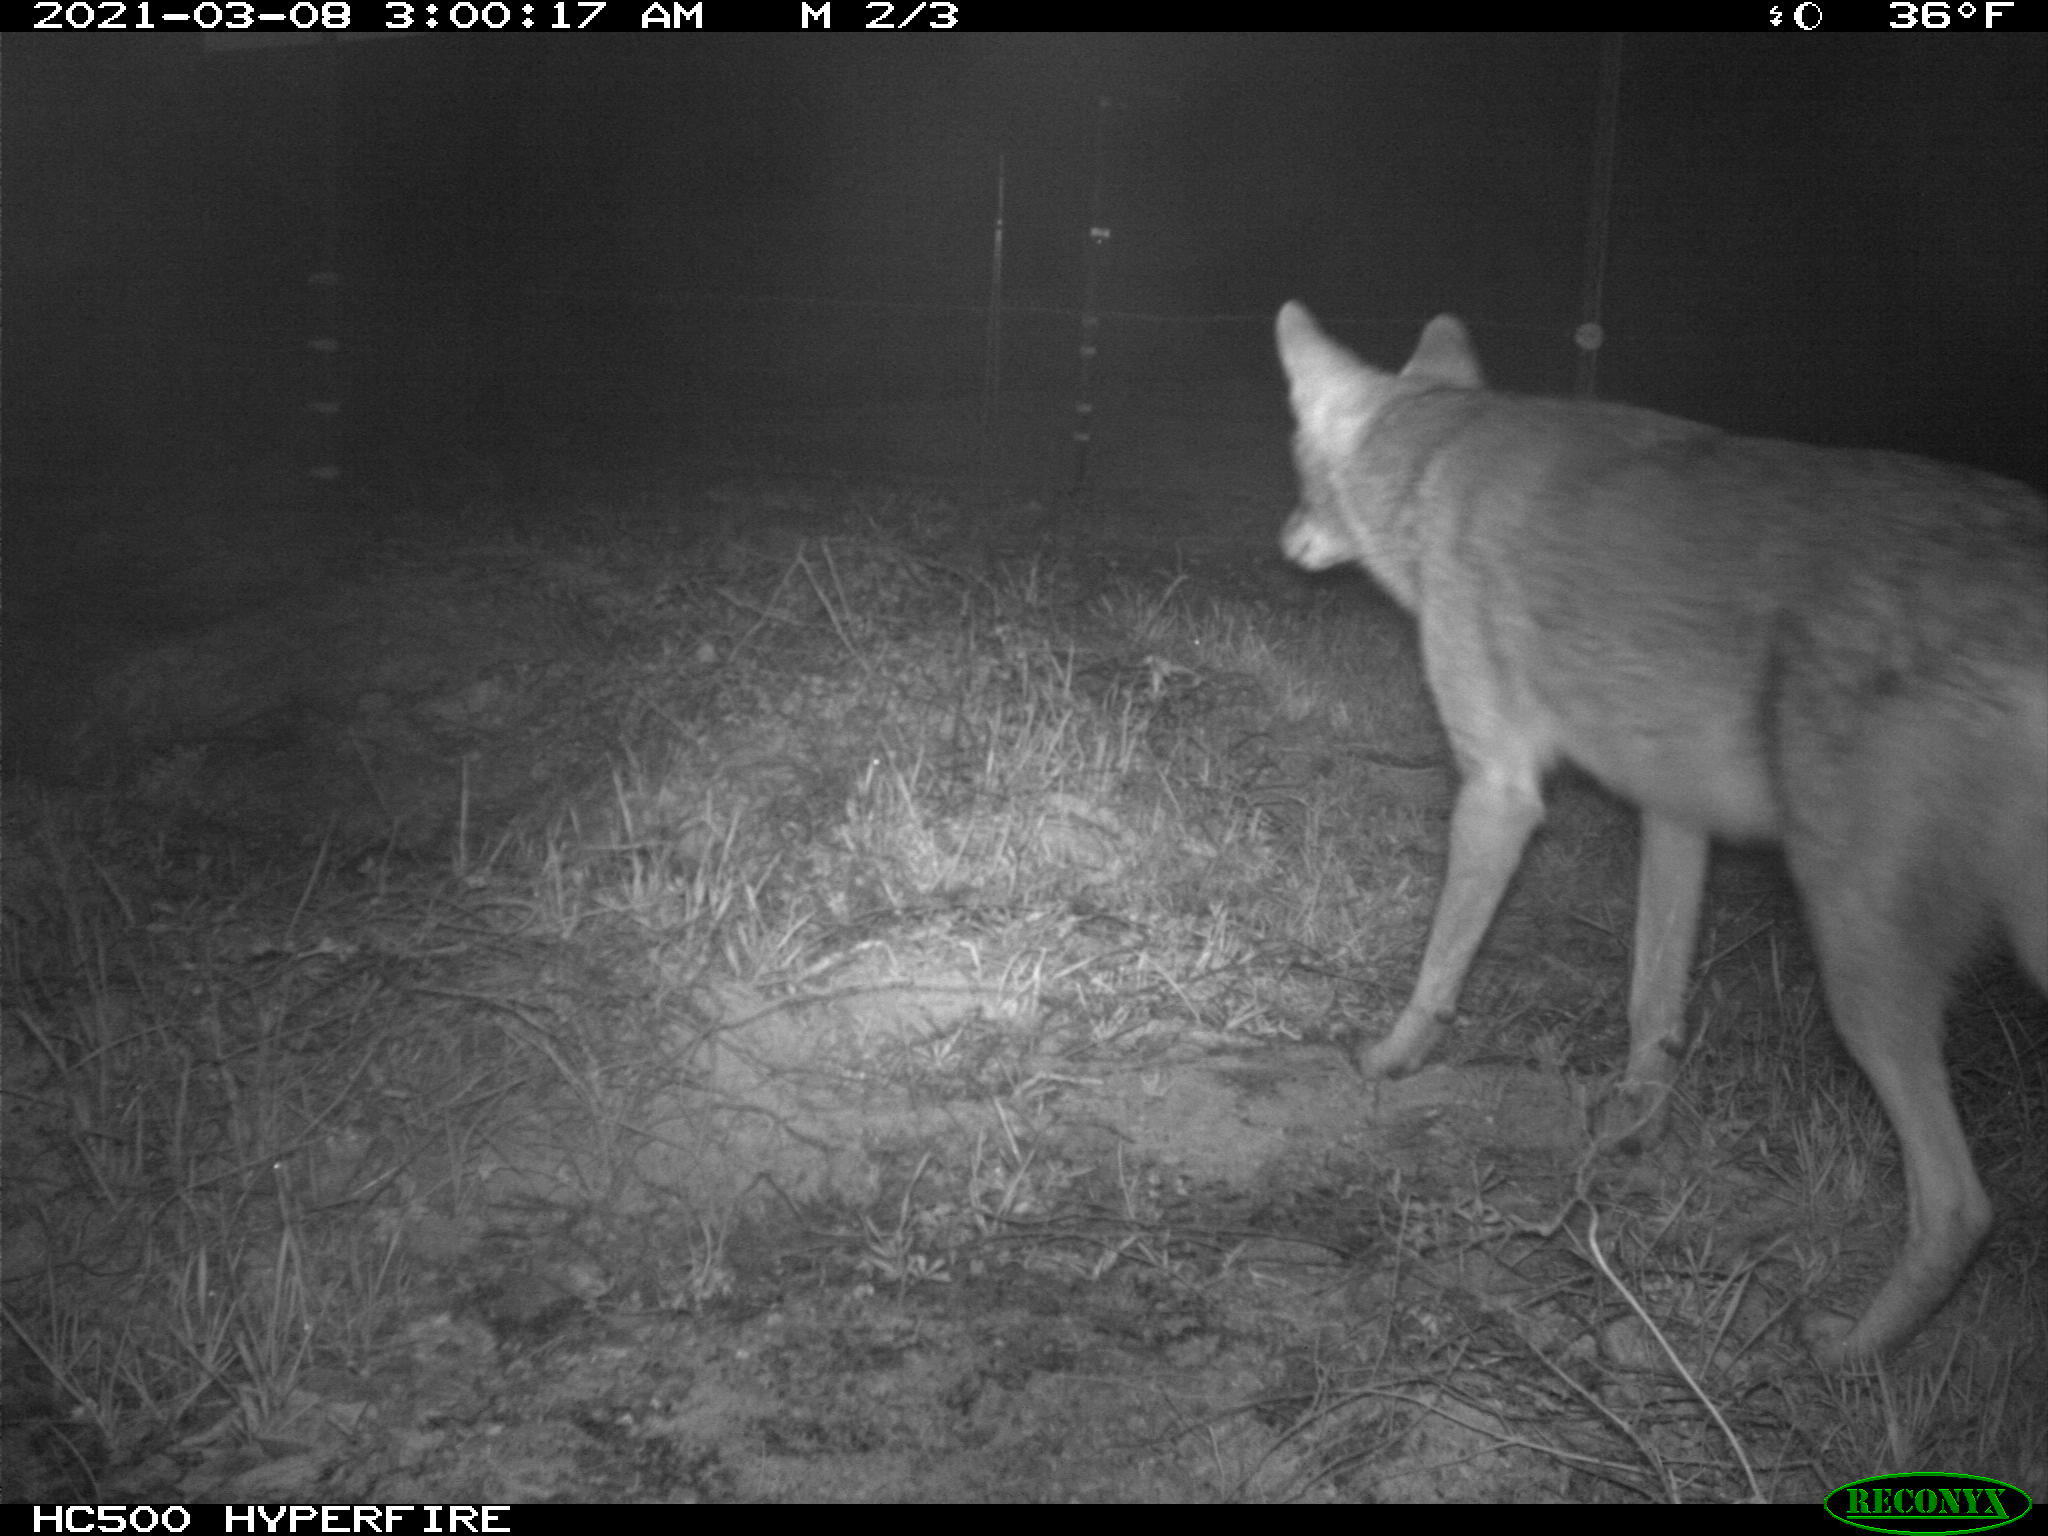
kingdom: Animalia
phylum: Chordata
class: Mammalia
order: Carnivora
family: Canidae
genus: Canis
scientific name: Canis latrans
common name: Coyote
